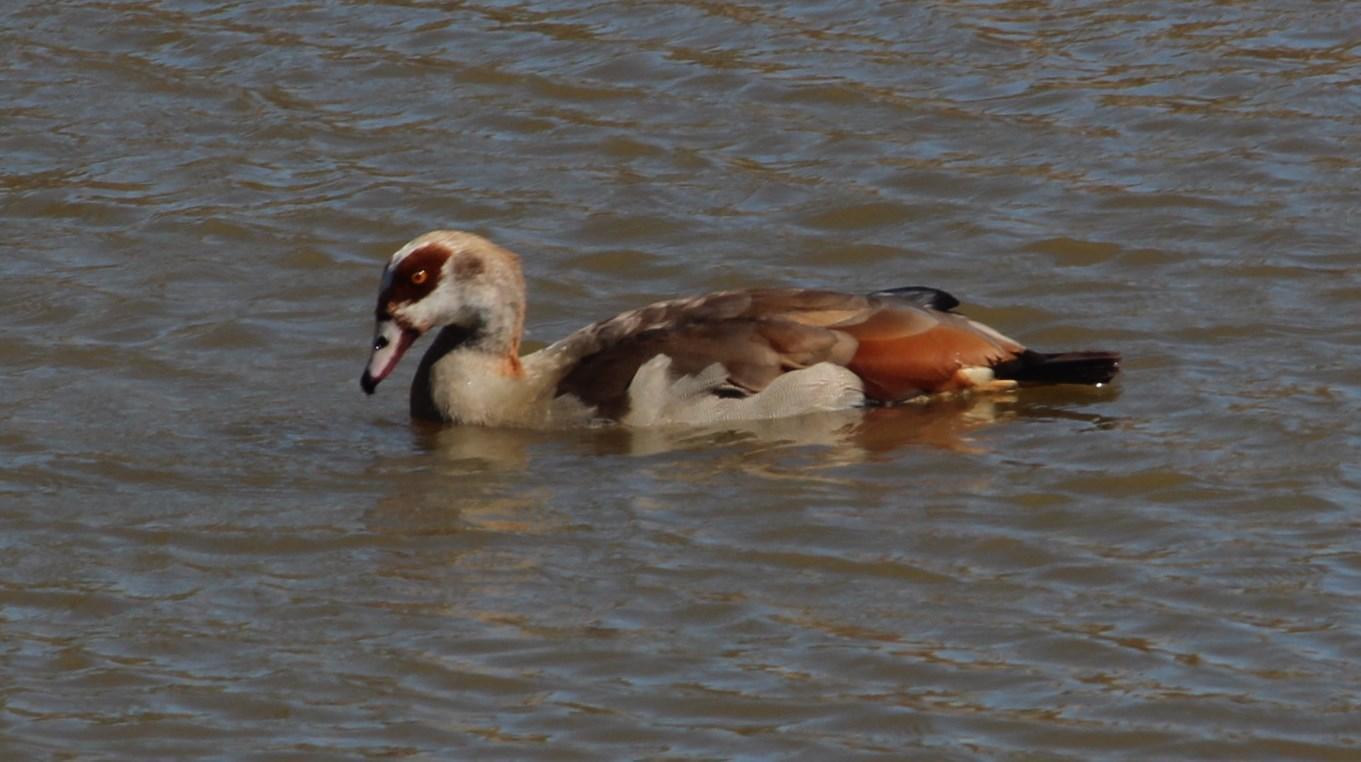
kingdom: Animalia
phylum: Chordata
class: Aves
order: Anseriformes
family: Anatidae
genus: Alopochen
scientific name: Alopochen aegyptiaca
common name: Egyptian goose
